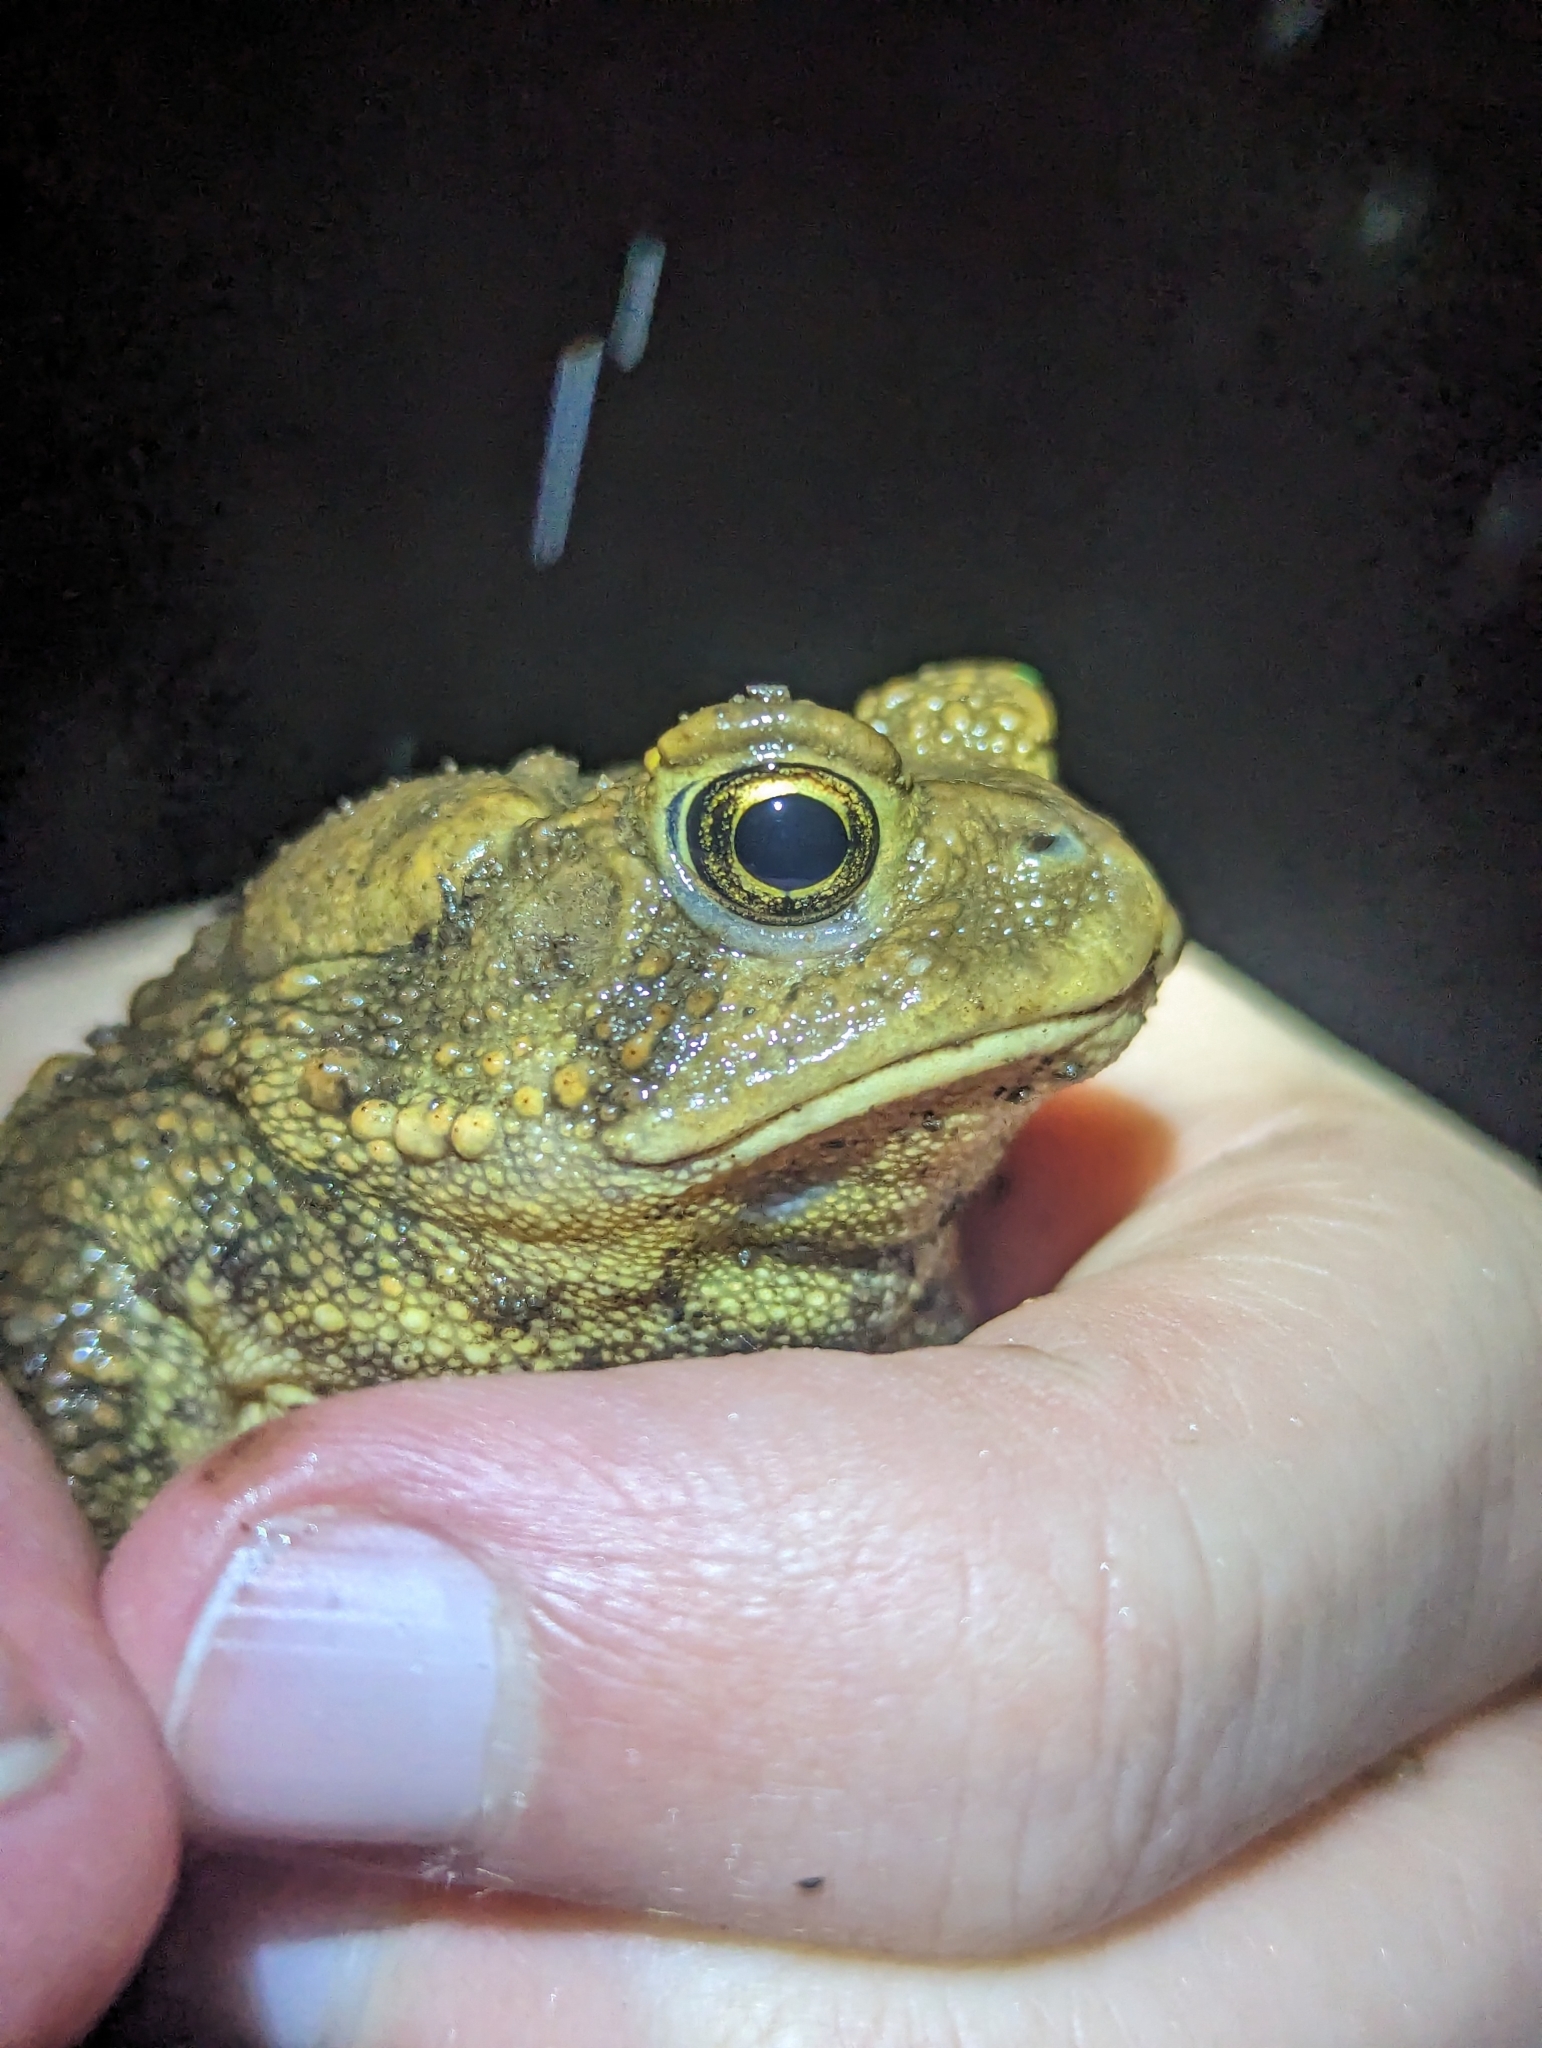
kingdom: Animalia
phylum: Chordata
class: Amphibia
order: Anura
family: Bufonidae
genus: Anaxyrus
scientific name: Anaxyrus americanus
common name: American toad
